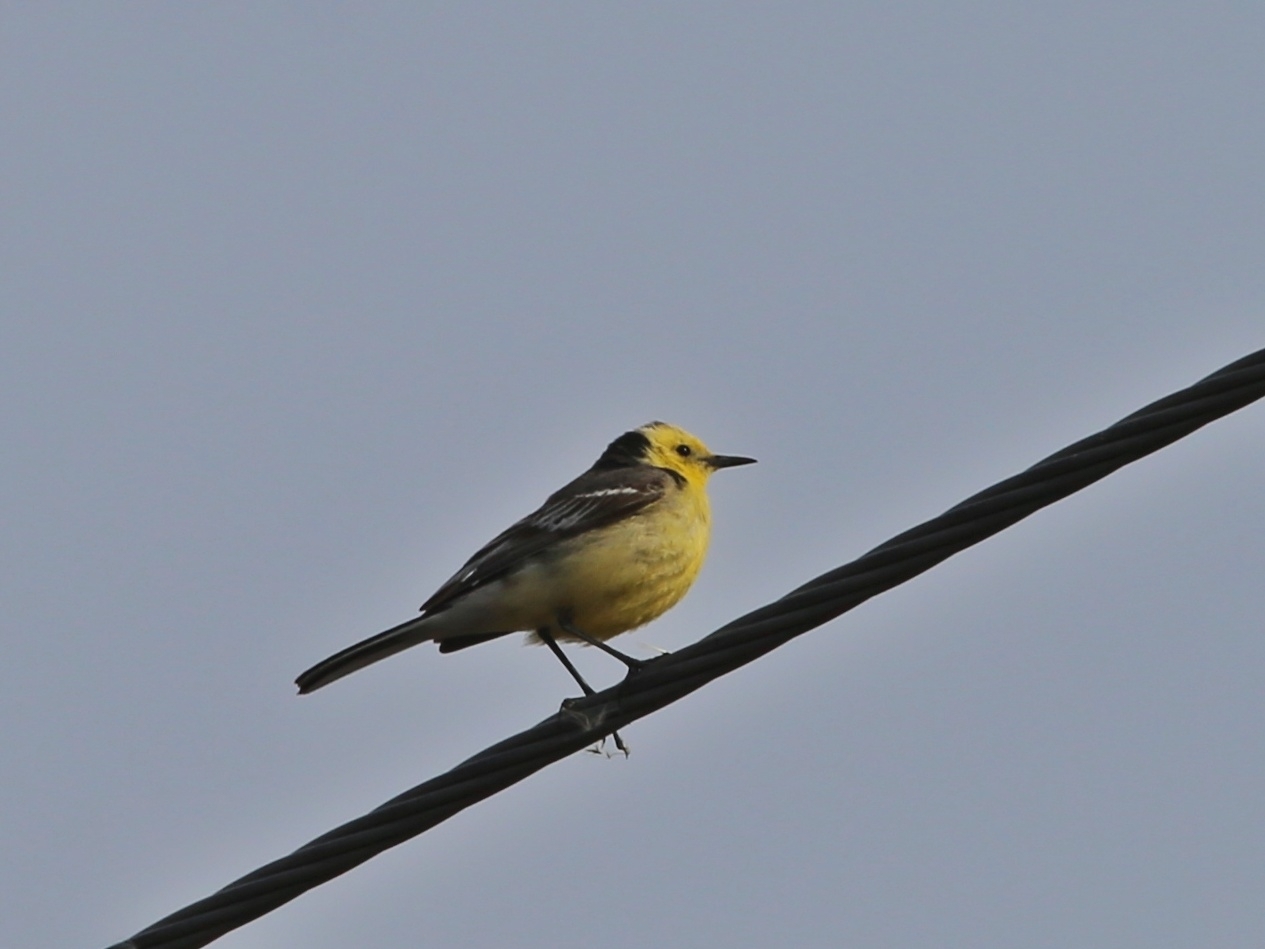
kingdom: Animalia
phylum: Chordata
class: Aves
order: Passeriformes
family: Motacillidae
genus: Motacilla
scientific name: Motacilla citreola
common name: Citrine wagtail
